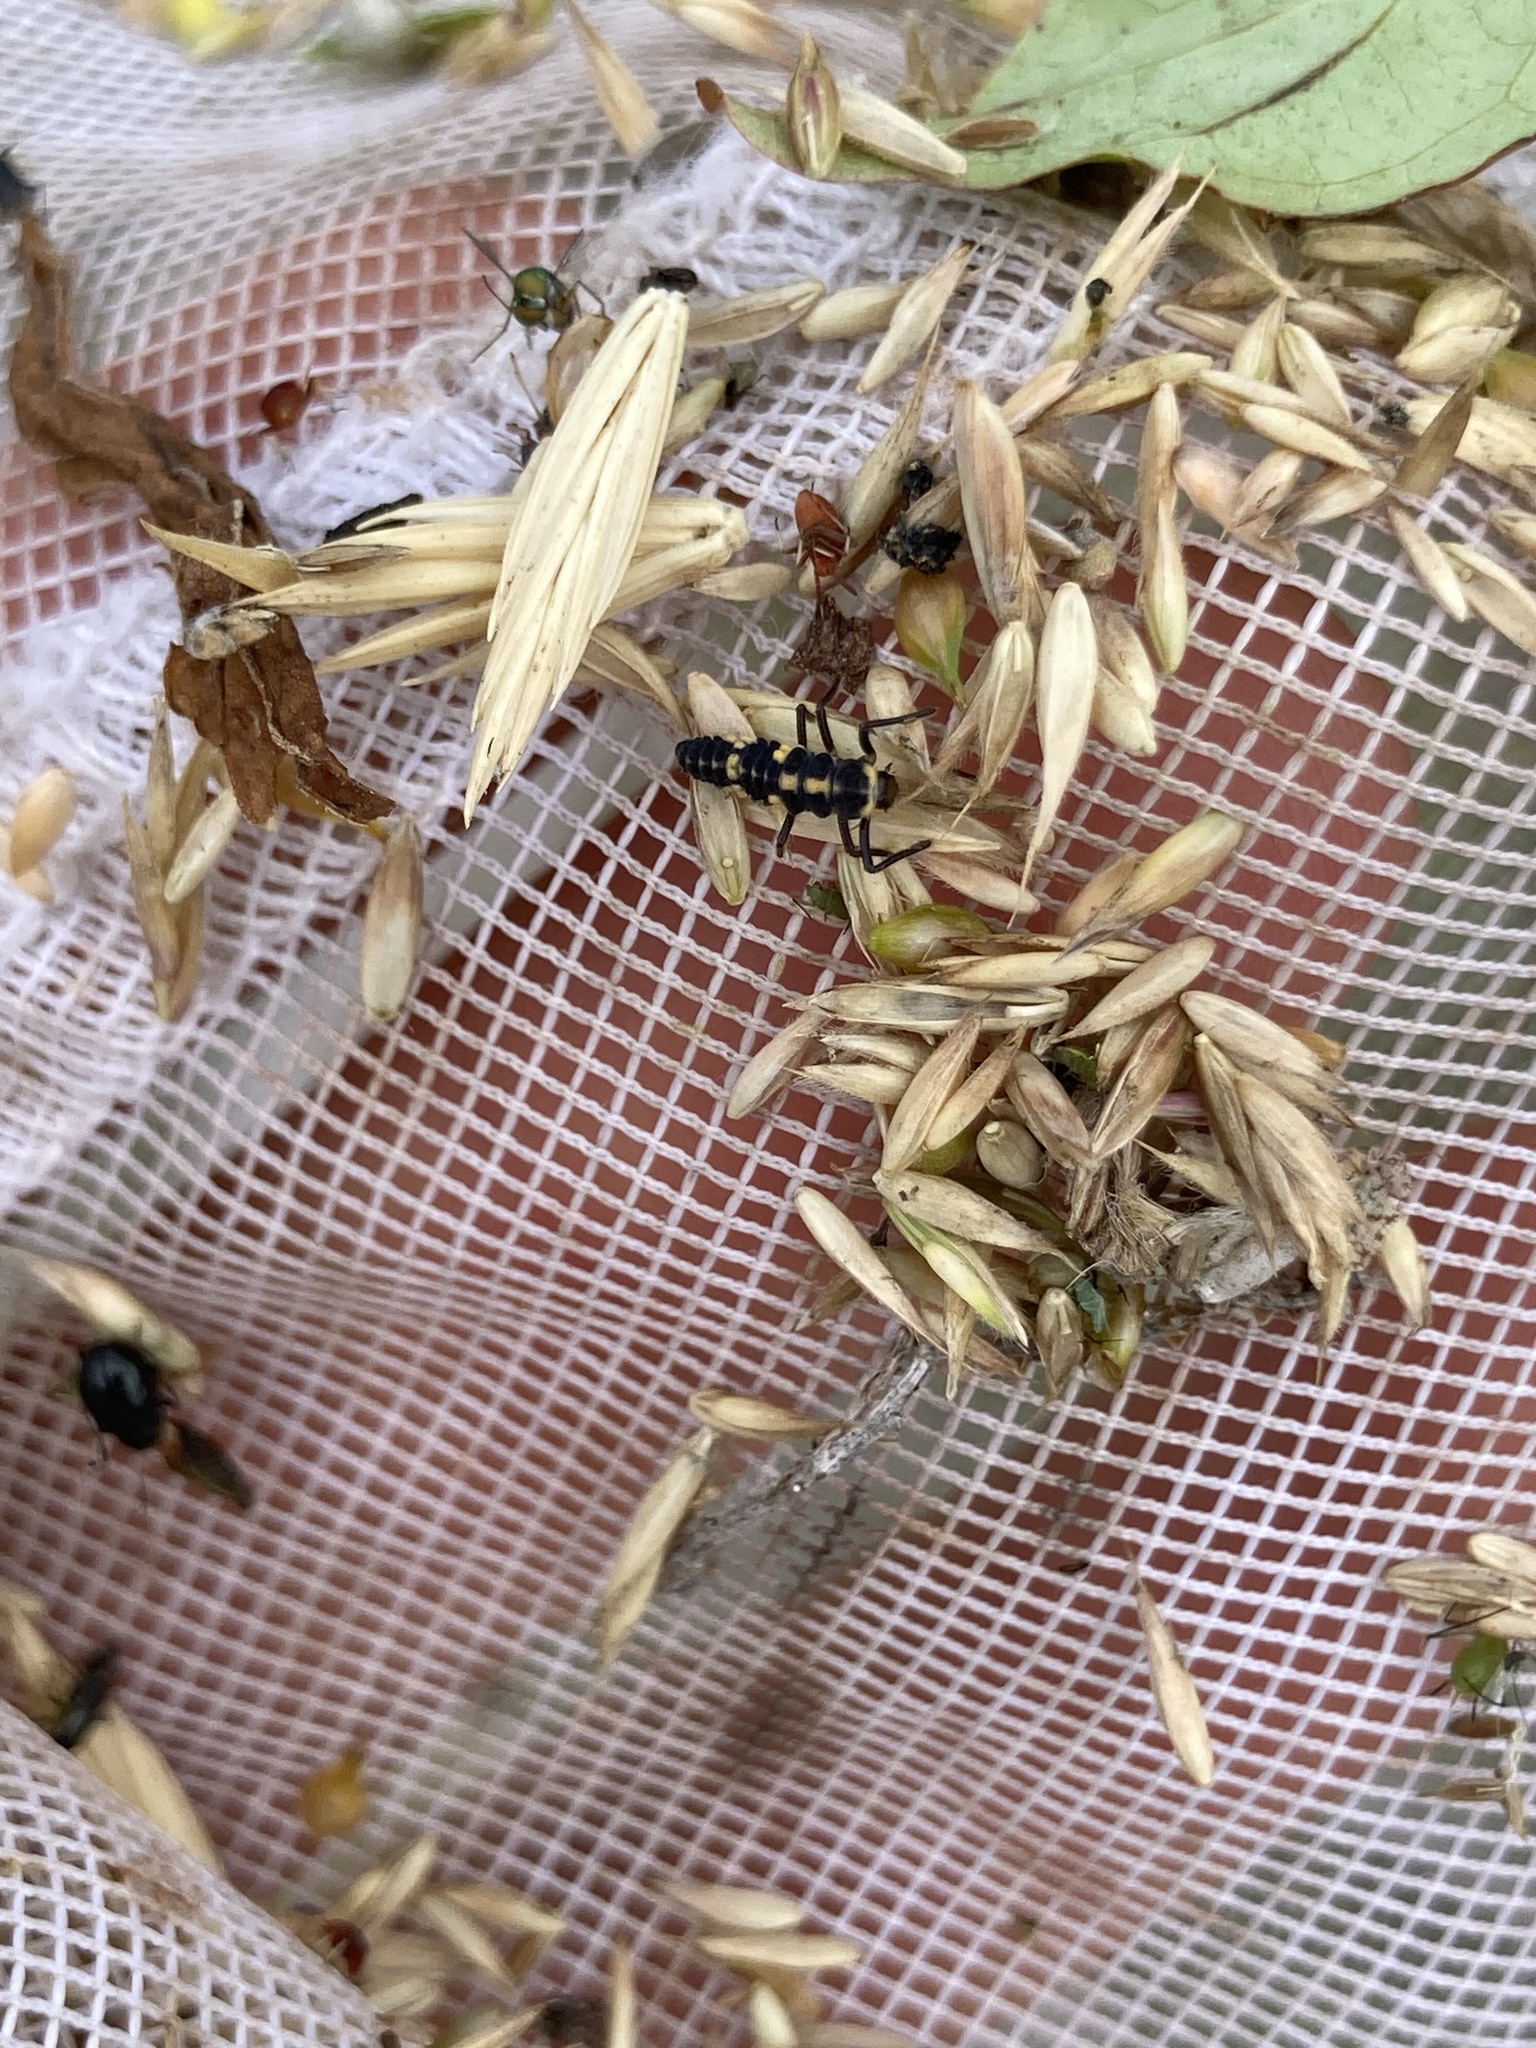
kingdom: Animalia
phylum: Arthropoda
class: Insecta
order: Coleoptera
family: Coccinellidae
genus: Propylaea
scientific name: Propylaea quatuordecimpunctata
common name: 14-spotted ladybird beetle
